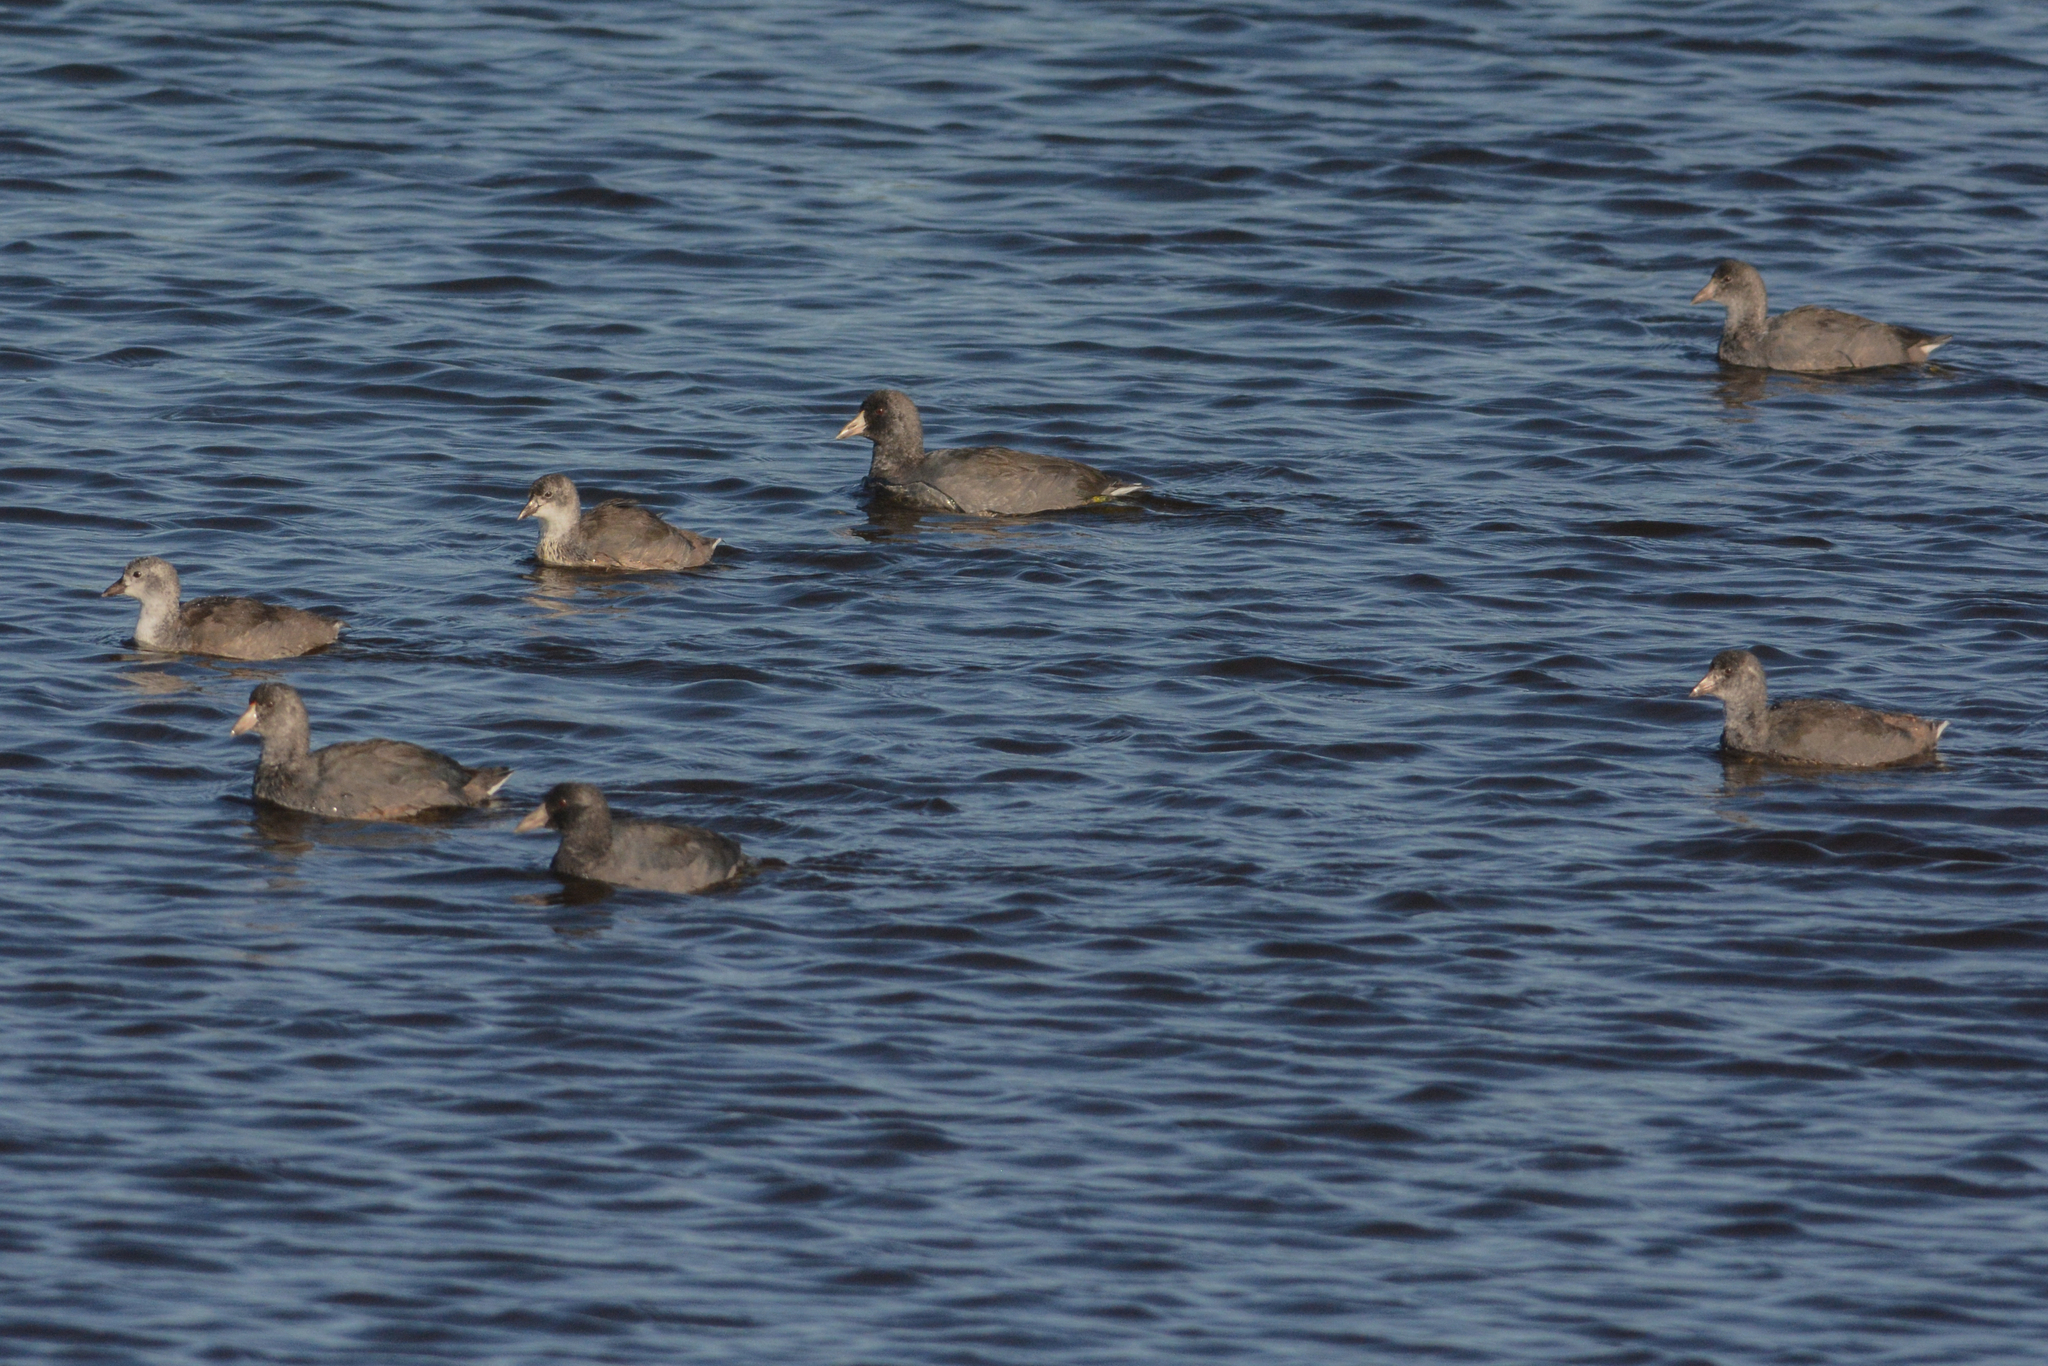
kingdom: Animalia
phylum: Chordata
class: Aves
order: Gruiformes
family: Rallidae
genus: Fulica
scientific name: Fulica americana
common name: American coot
